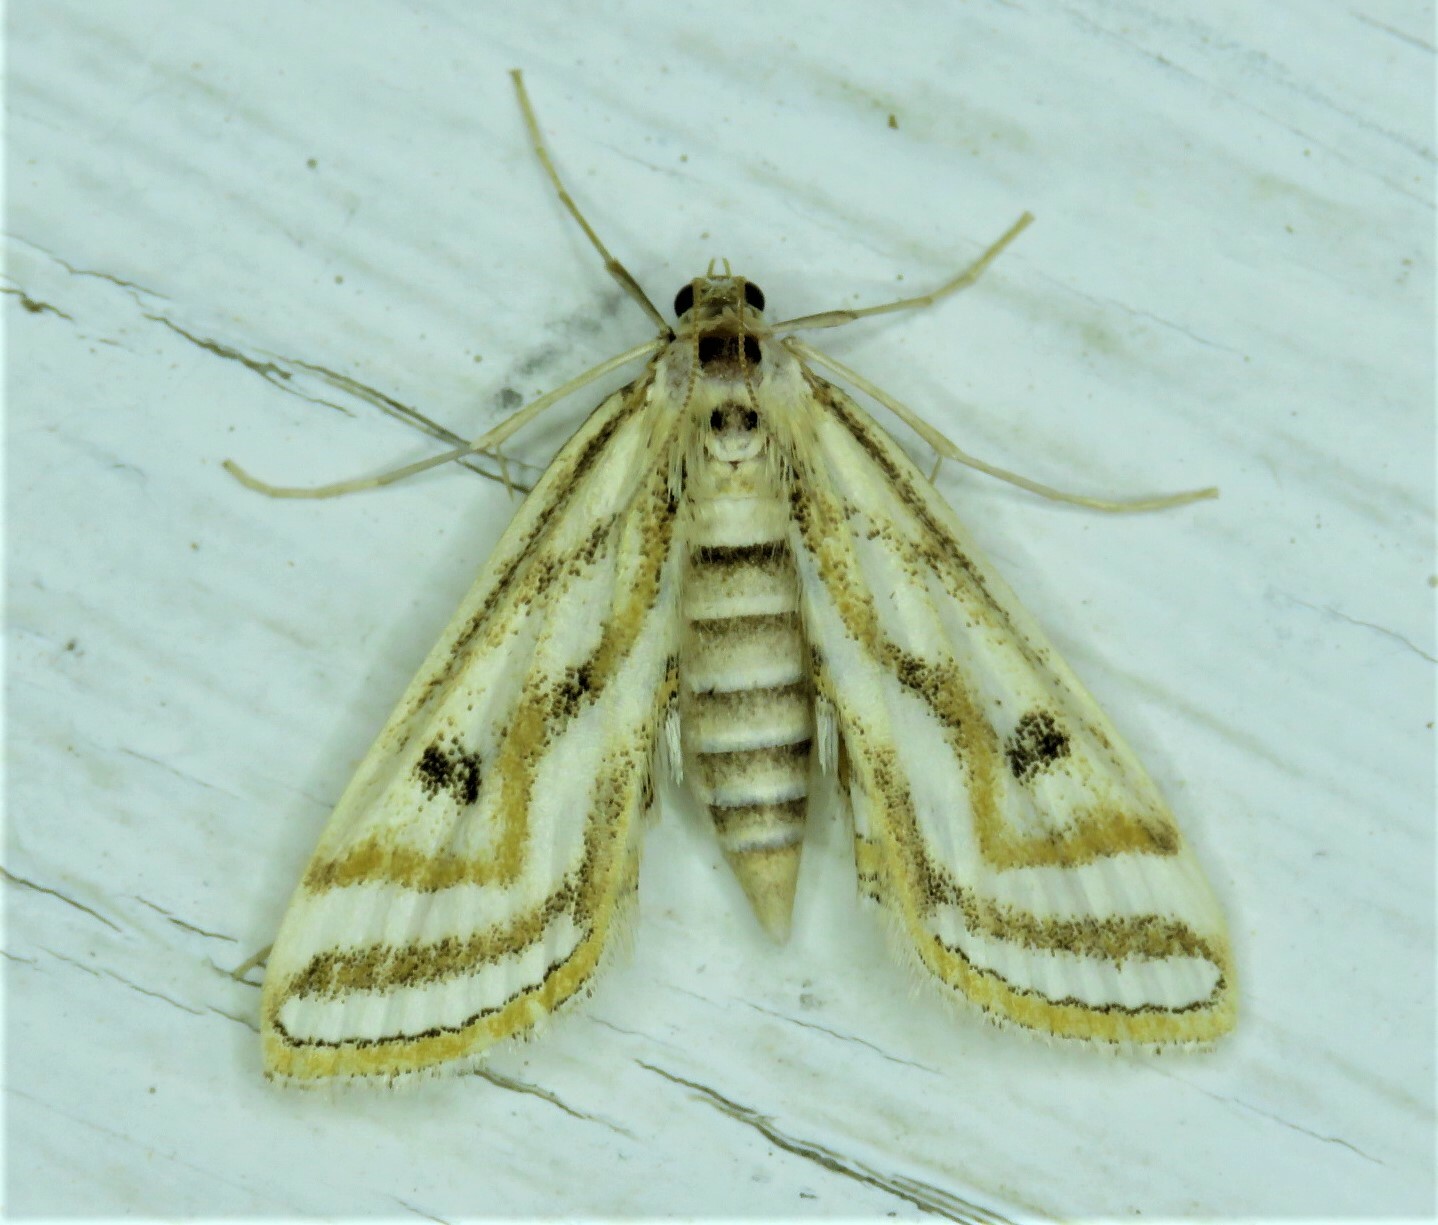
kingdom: Animalia
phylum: Arthropoda
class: Insecta
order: Lepidoptera
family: Crambidae
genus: Parapoynx
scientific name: Parapoynx curviferalis
